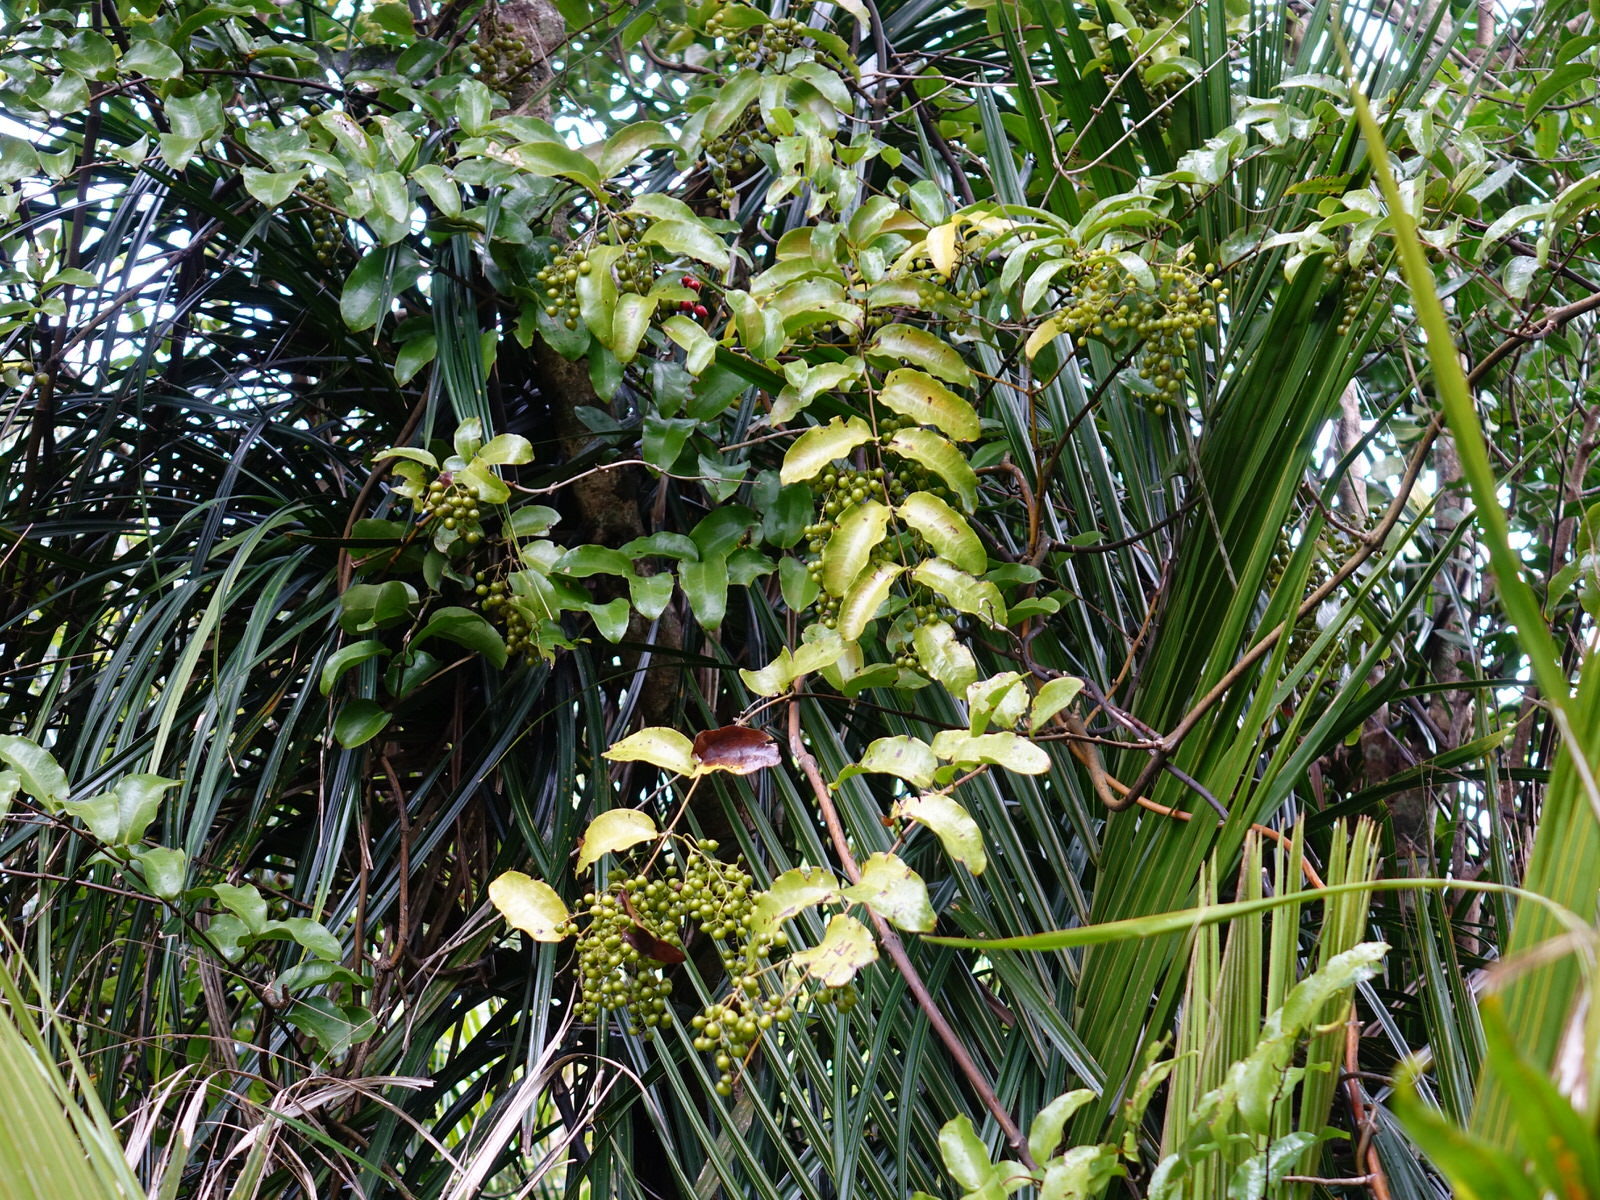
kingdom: Plantae
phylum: Tracheophyta
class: Liliopsida
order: Liliales
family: Ripogonaceae
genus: Ripogonum
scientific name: Ripogonum scandens
